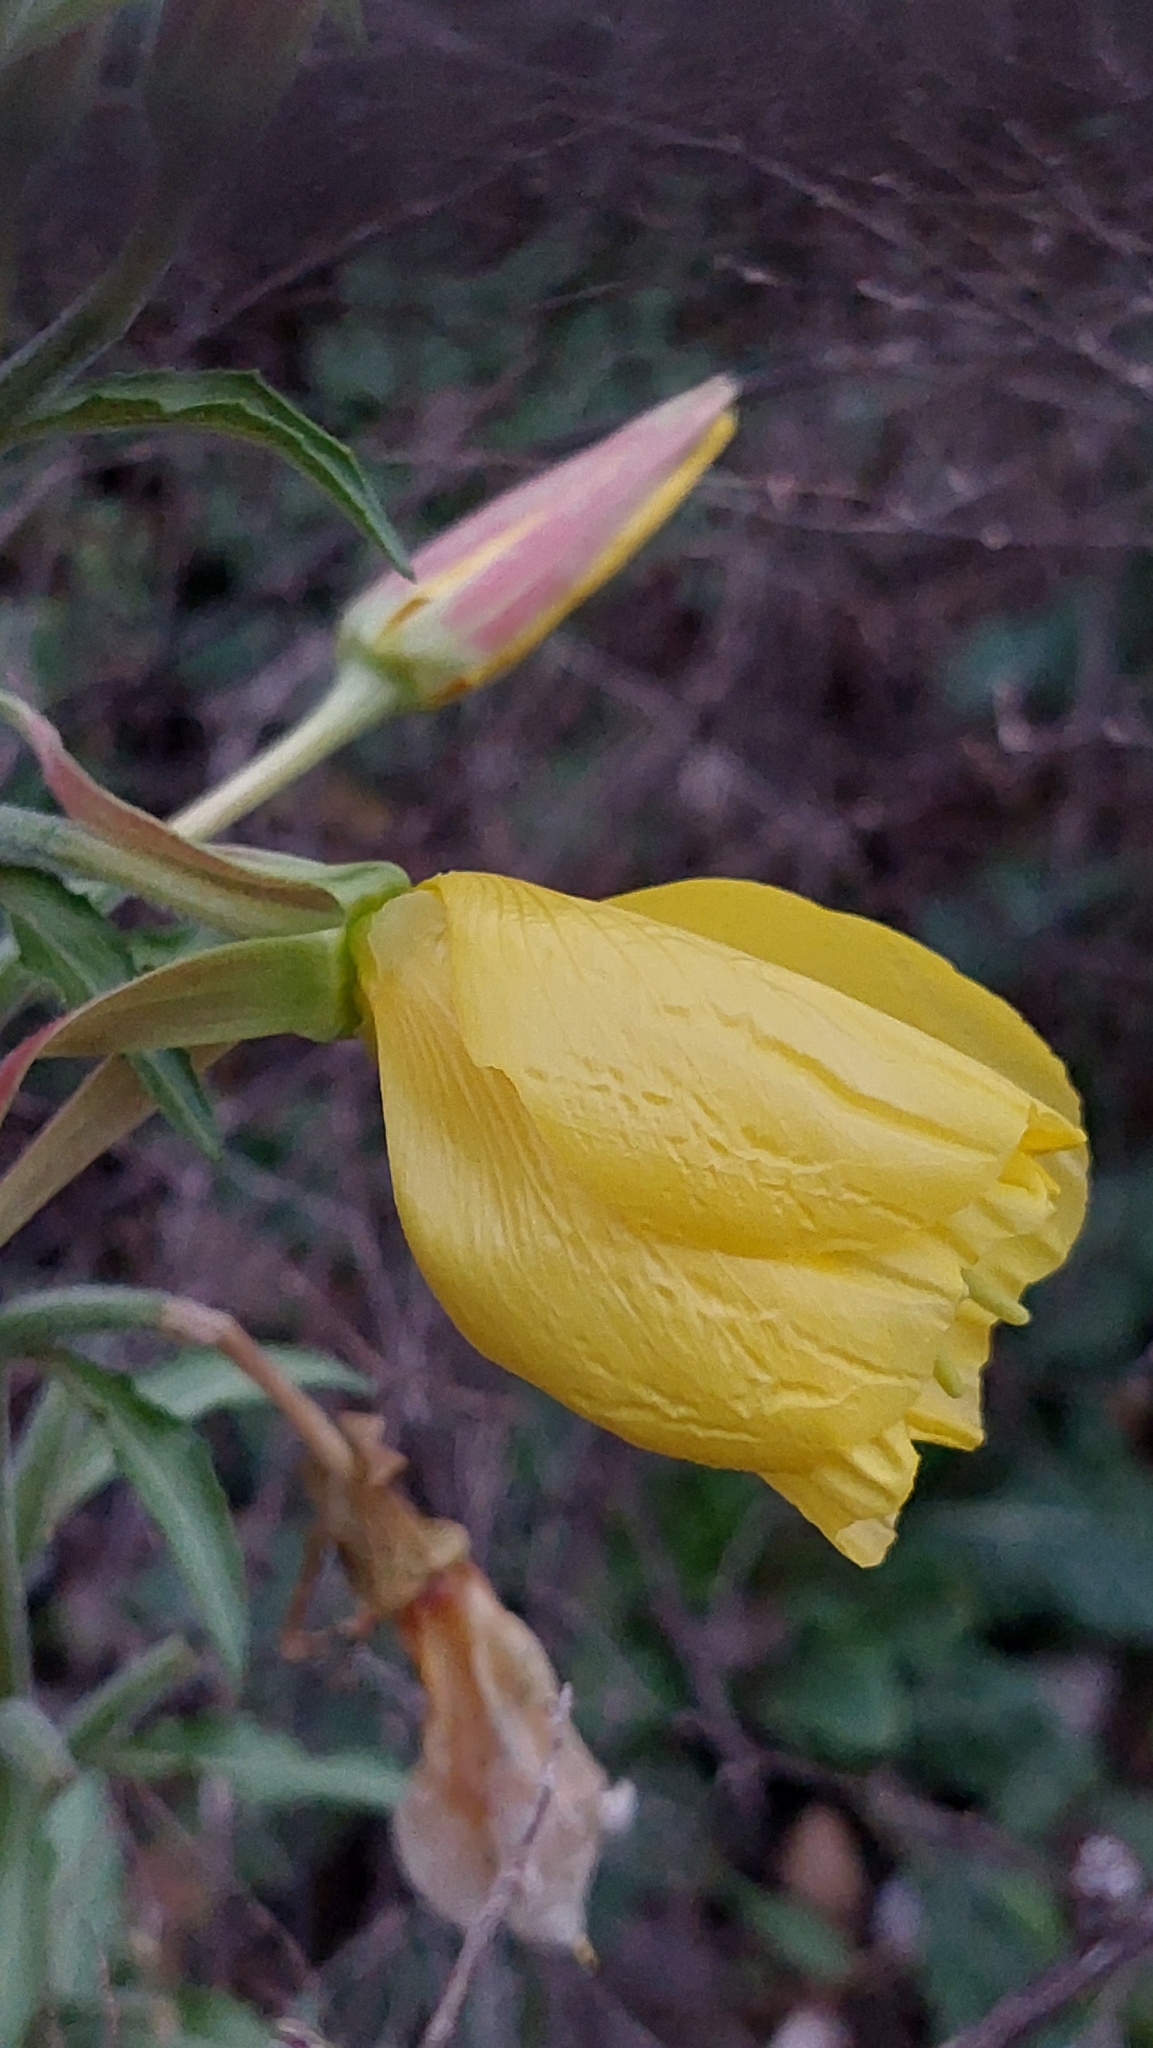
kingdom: Plantae
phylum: Tracheophyta
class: Magnoliopsida
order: Myrtales
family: Onagraceae
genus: Oenothera
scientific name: Oenothera glazioviana
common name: Large-flowered evening-primrose
